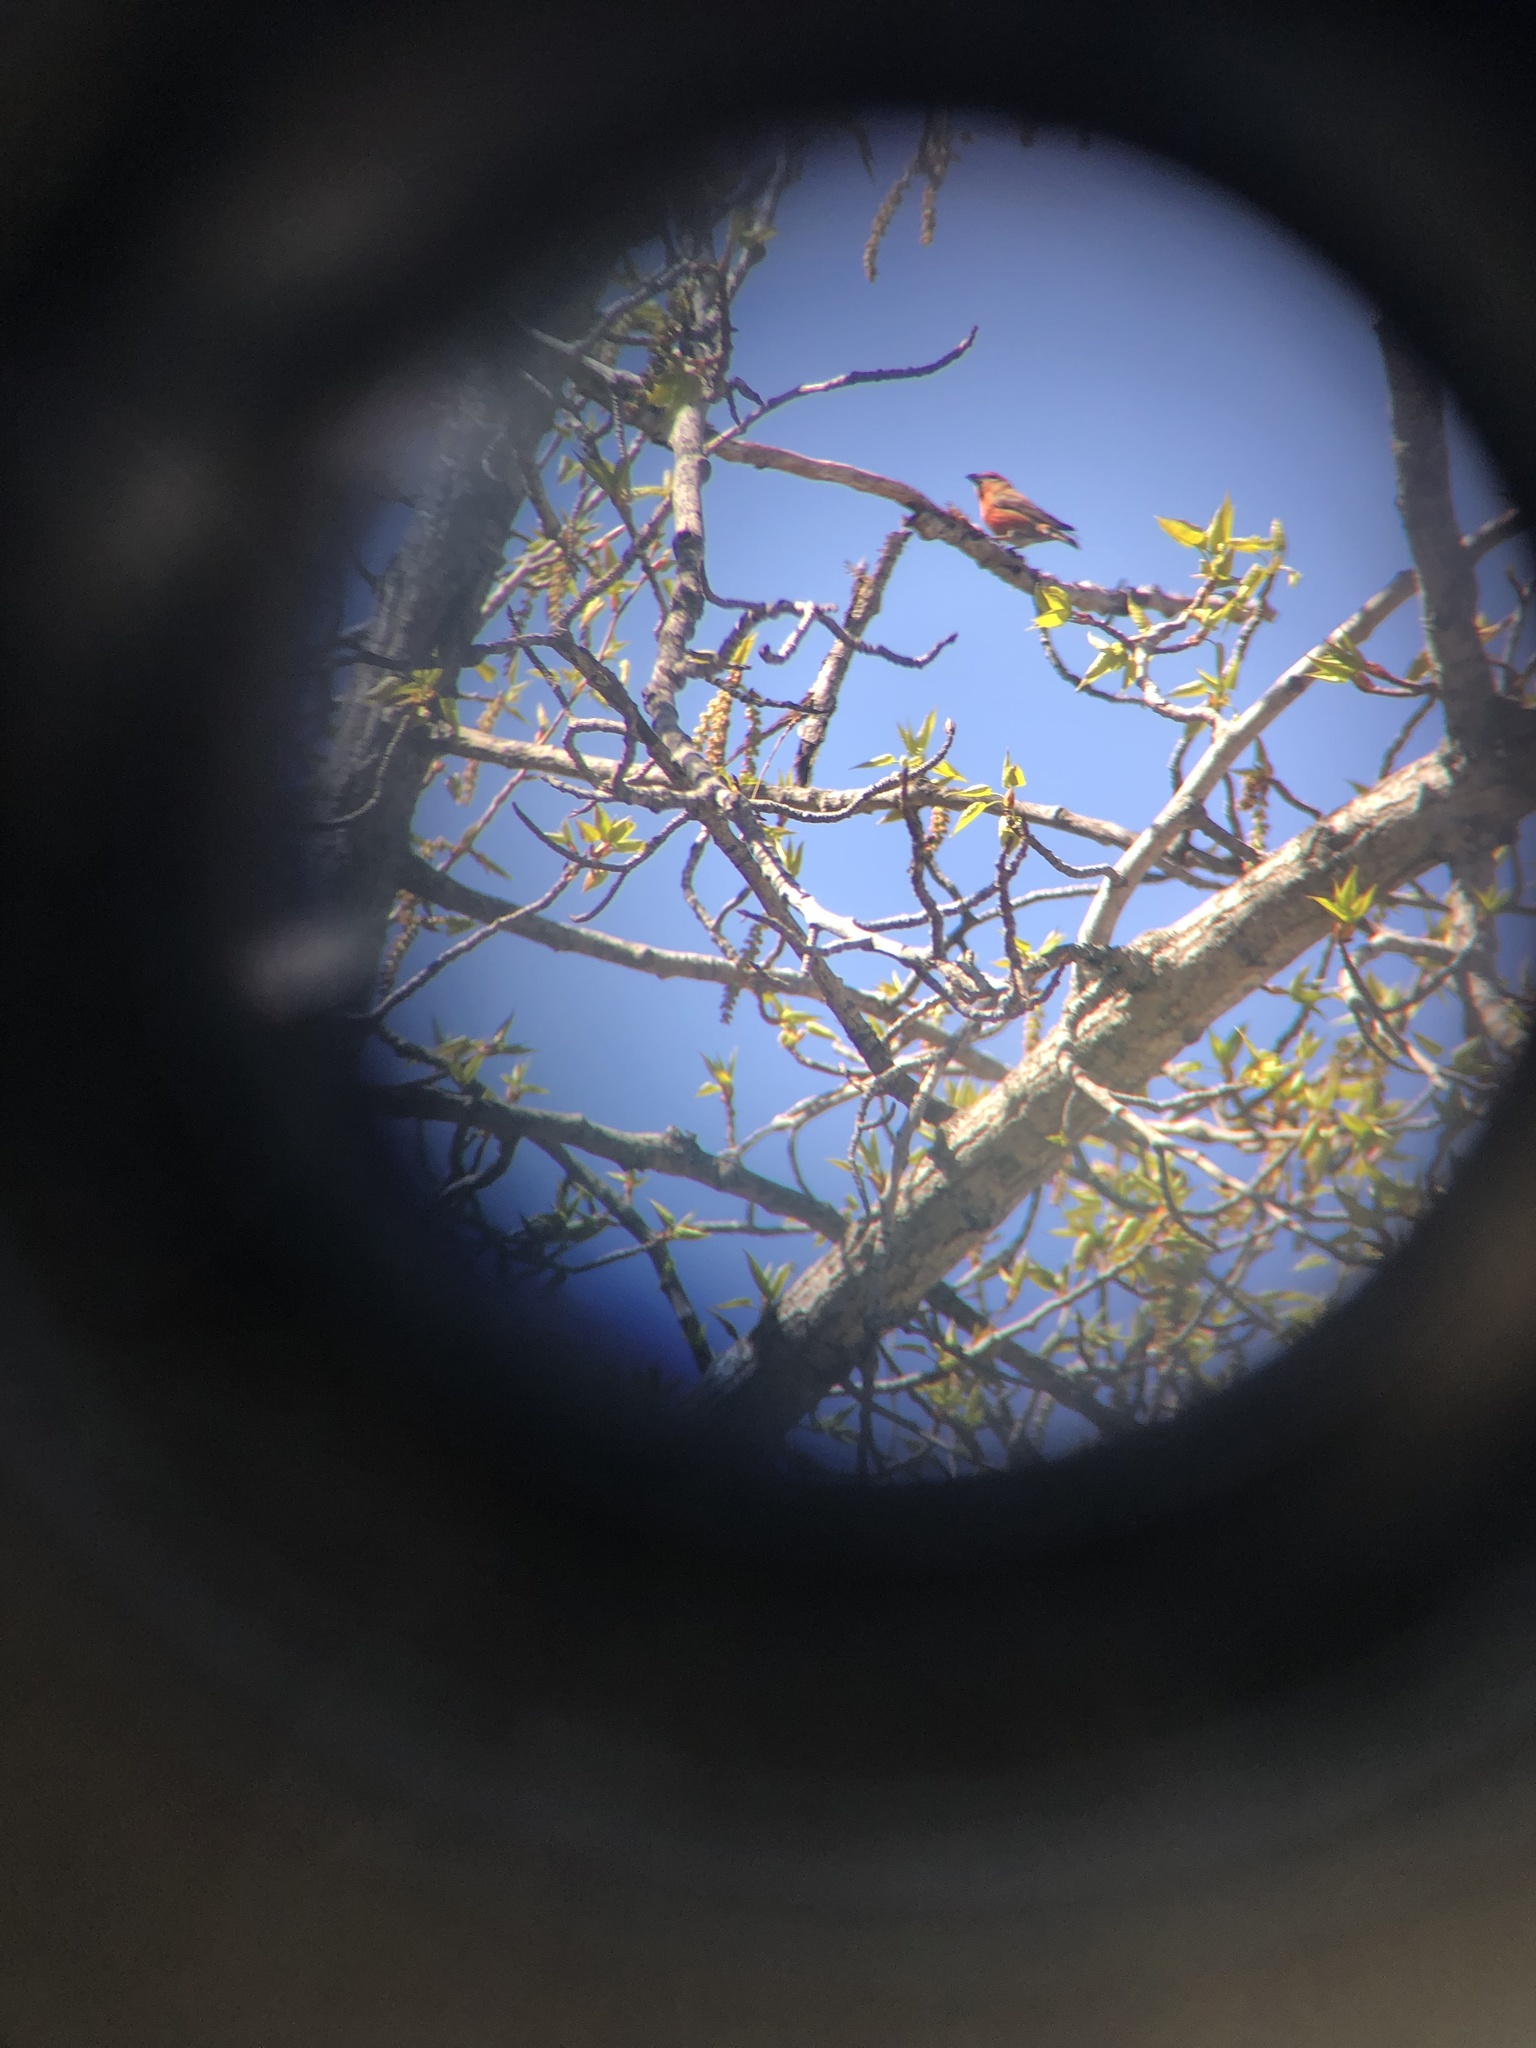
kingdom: Animalia
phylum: Chordata
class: Aves
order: Passeriformes
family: Fringillidae
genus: Loxia
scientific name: Loxia curvirostra
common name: Red crossbill
